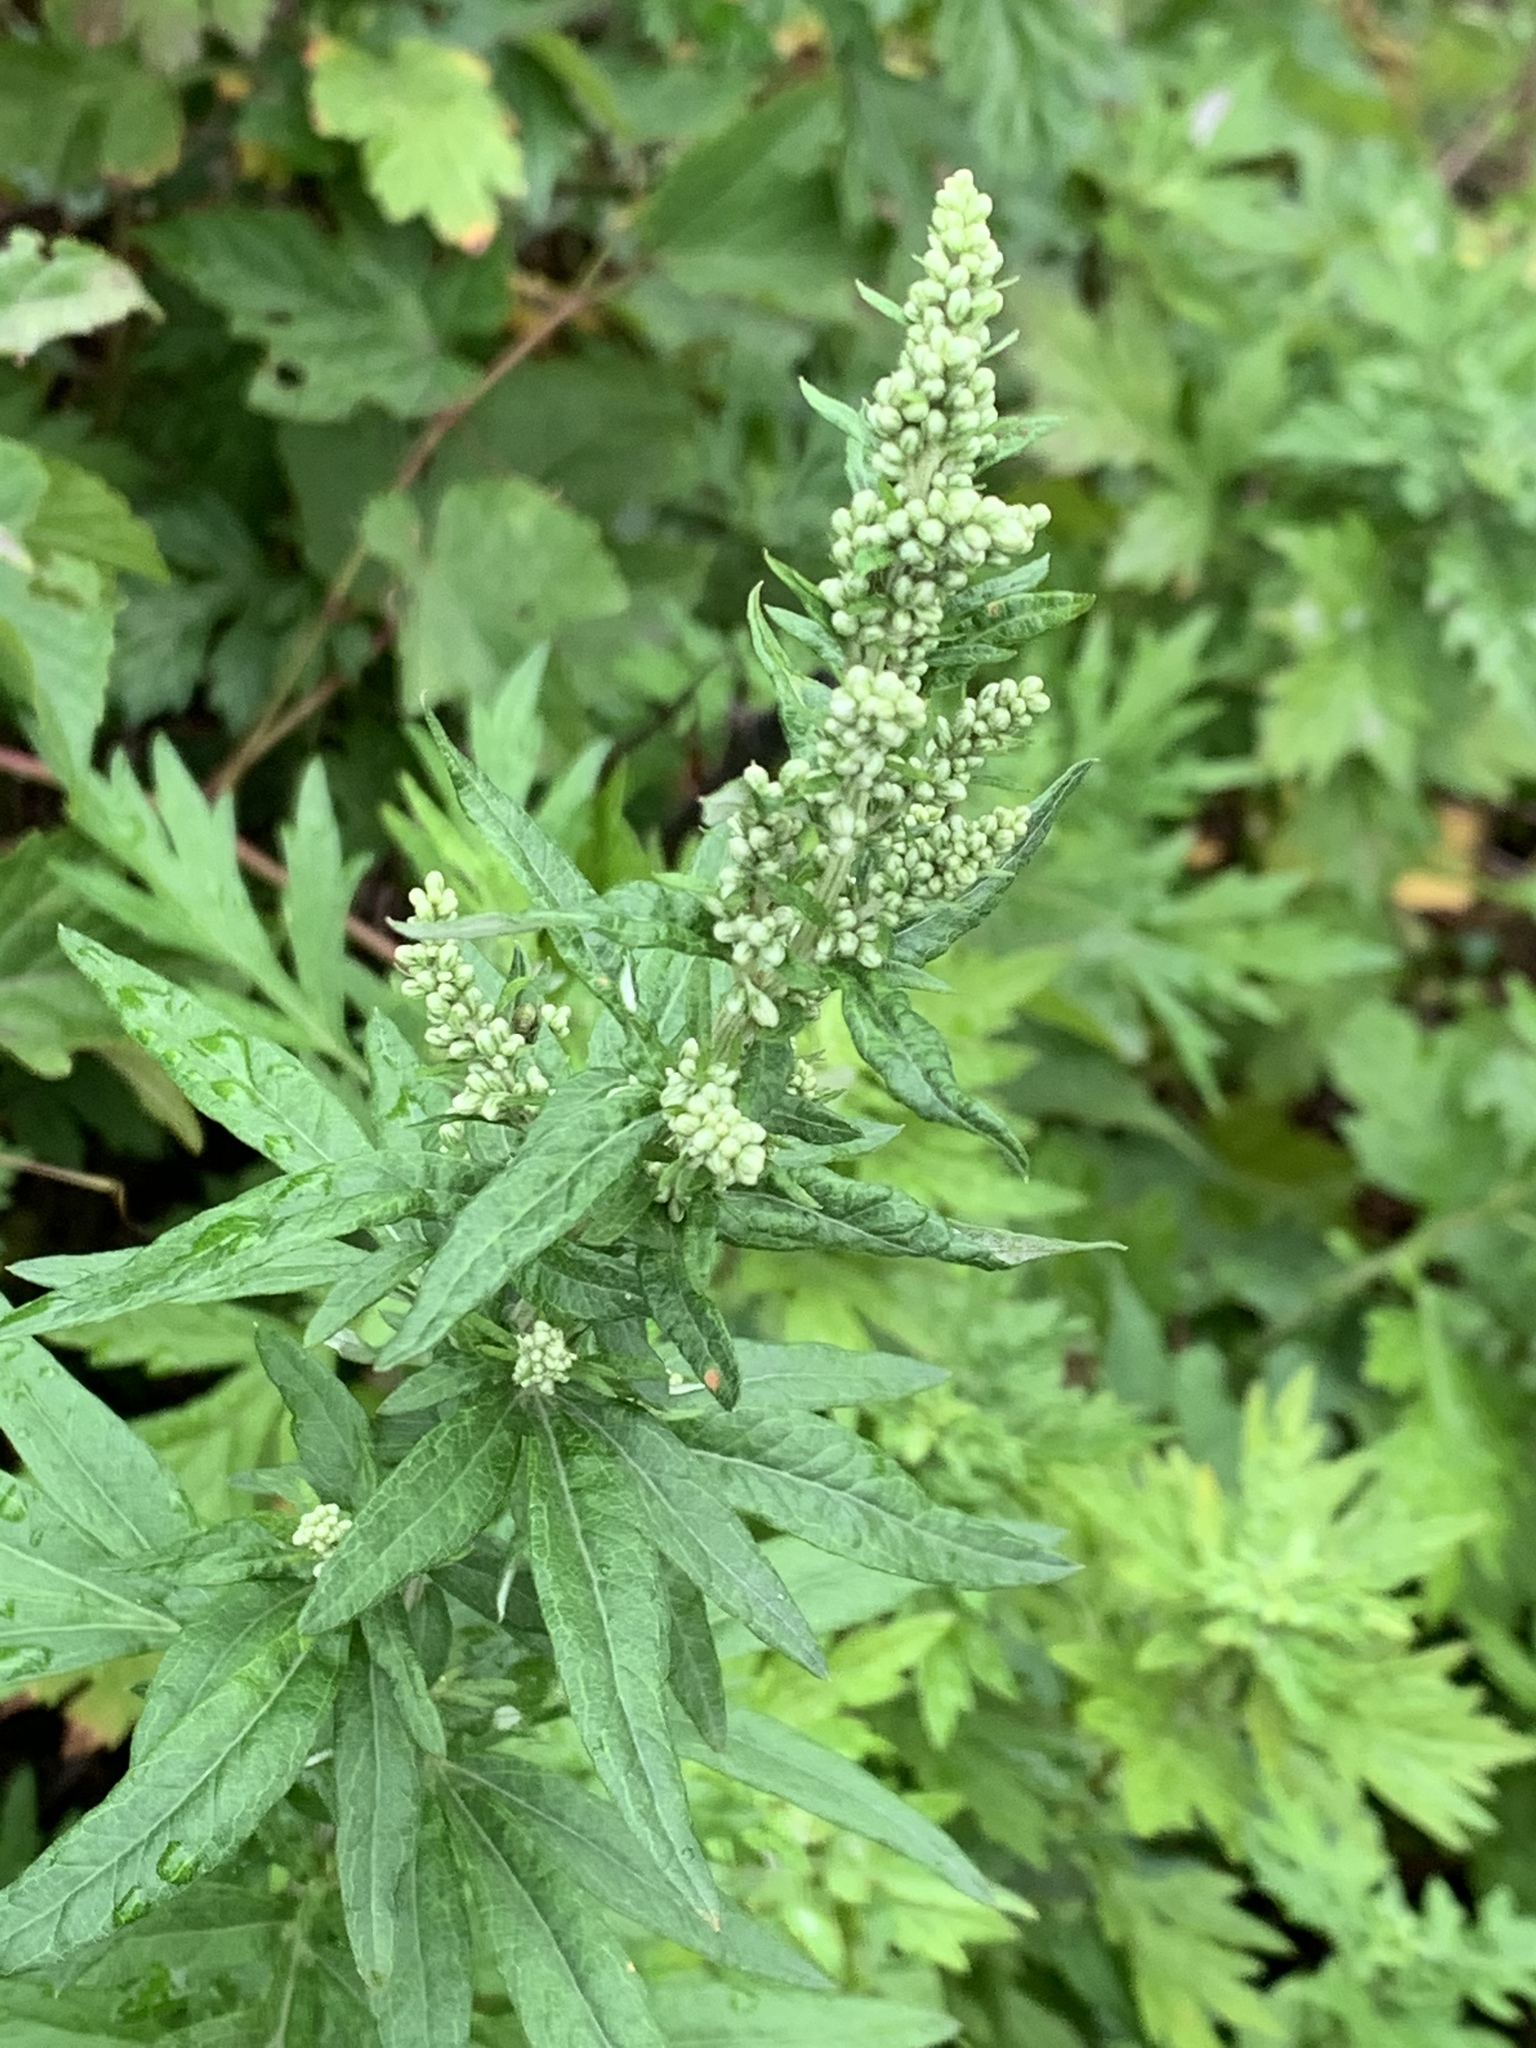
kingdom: Plantae
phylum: Tracheophyta
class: Magnoliopsida
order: Asterales
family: Asteraceae
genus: Artemisia
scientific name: Artemisia vulgaris
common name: Mugwort
